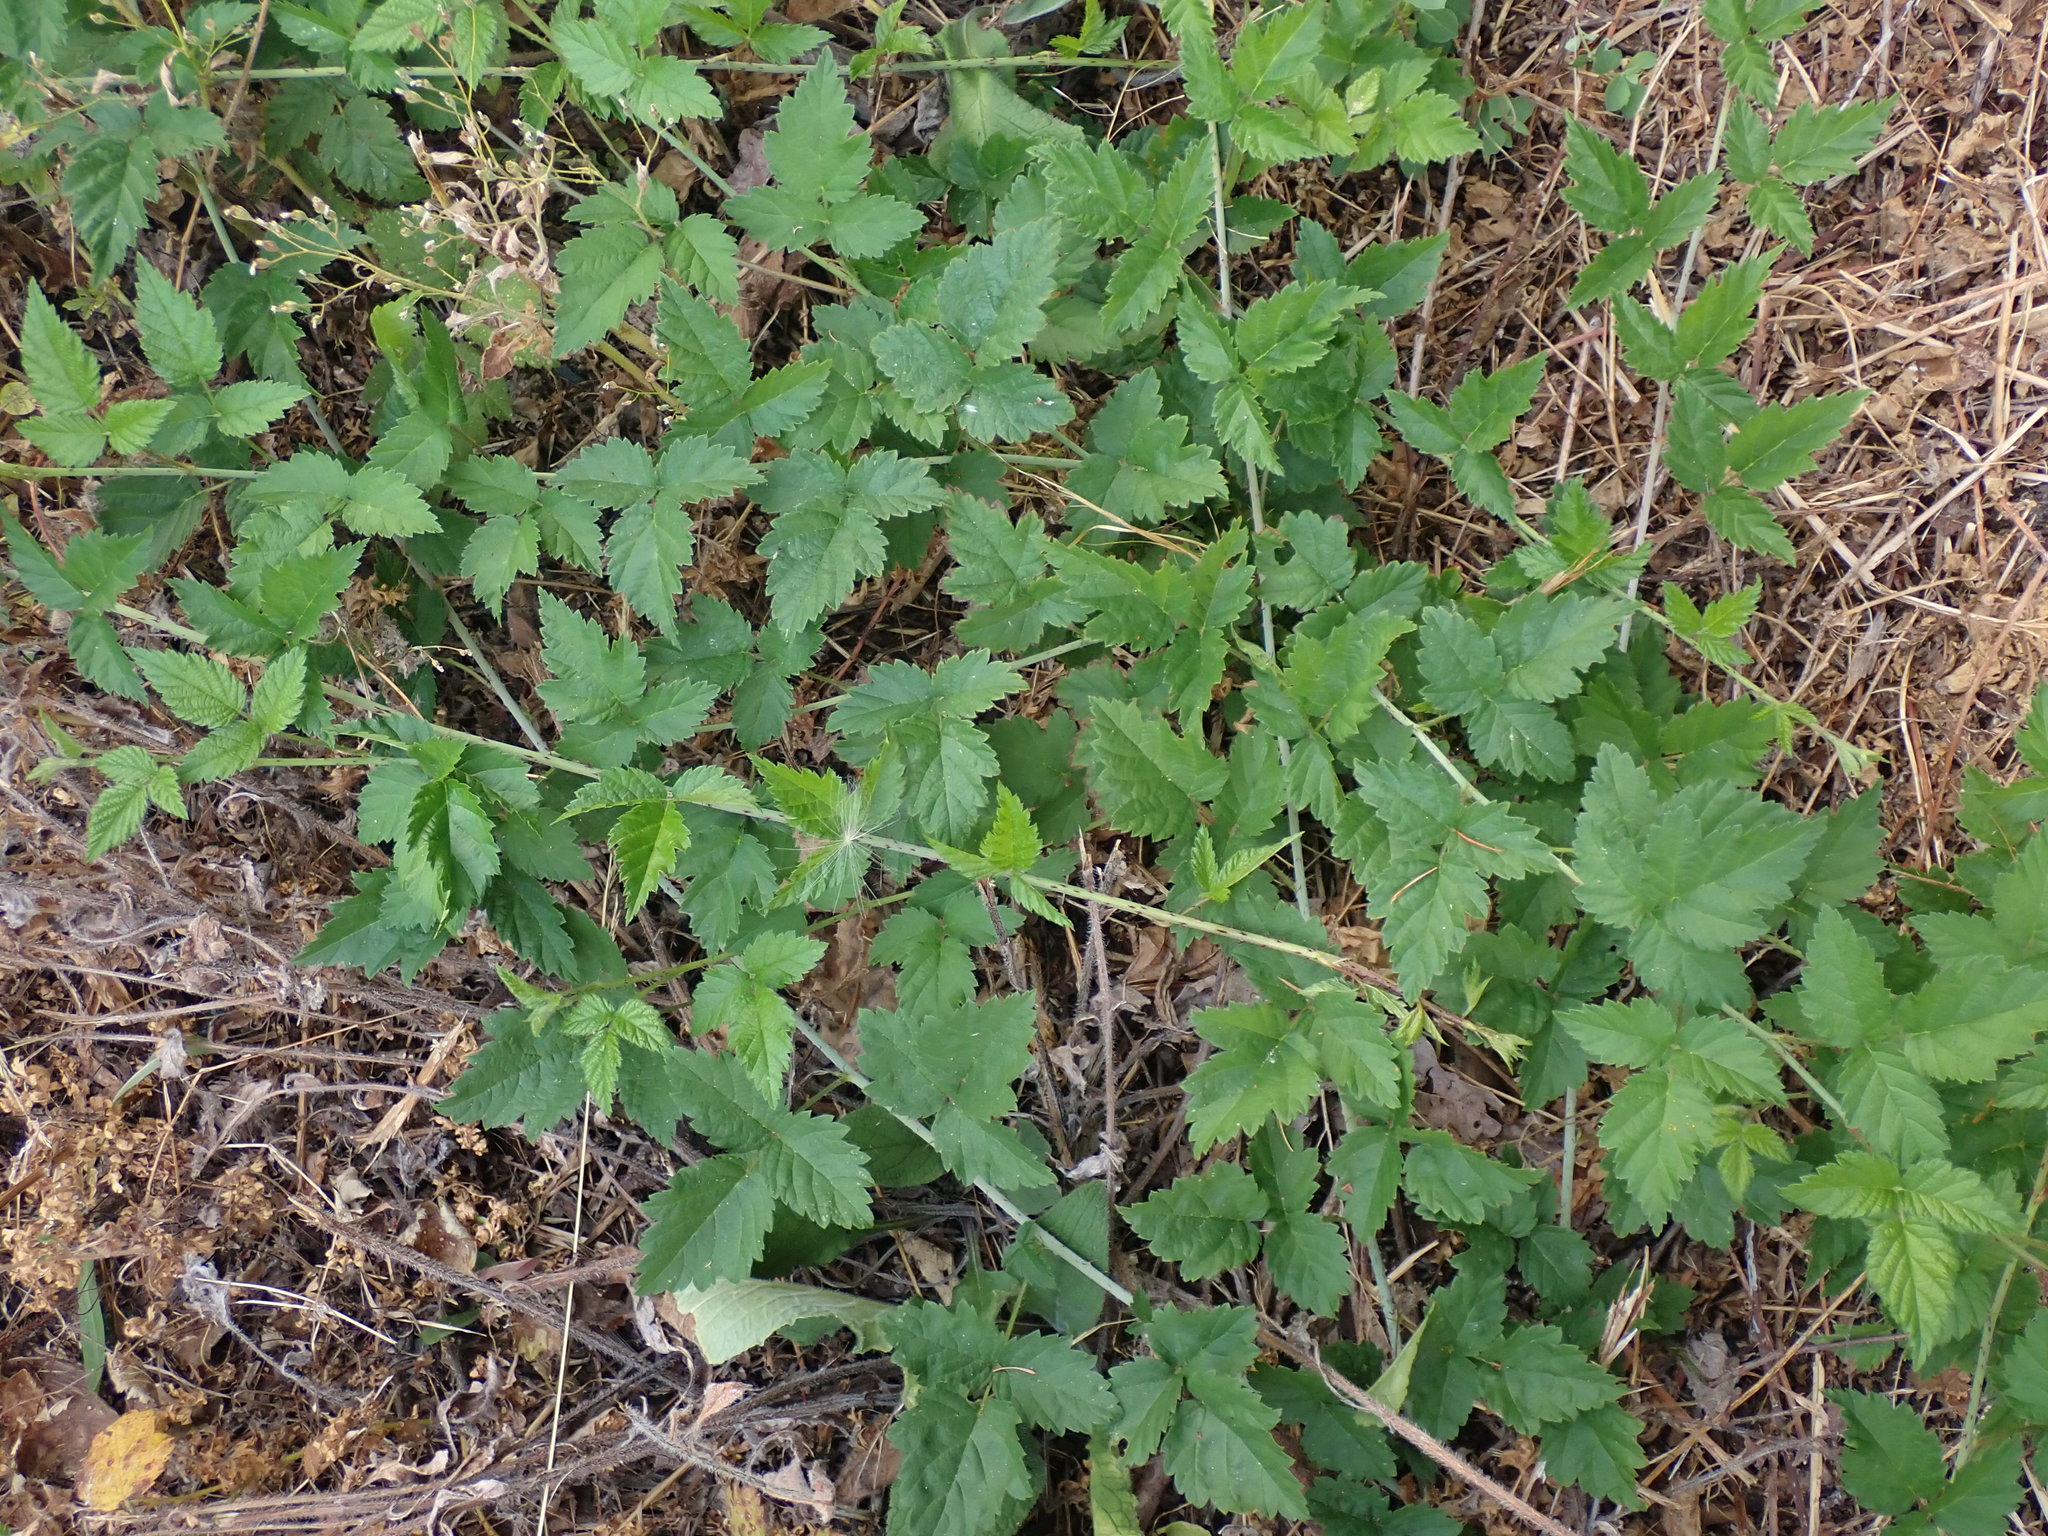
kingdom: Plantae
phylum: Tracheophyta
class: Magnoliopsida
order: Rosales
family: Rosaceae
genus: Rubus
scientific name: Rubus ursinus
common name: Pacific blackberry
